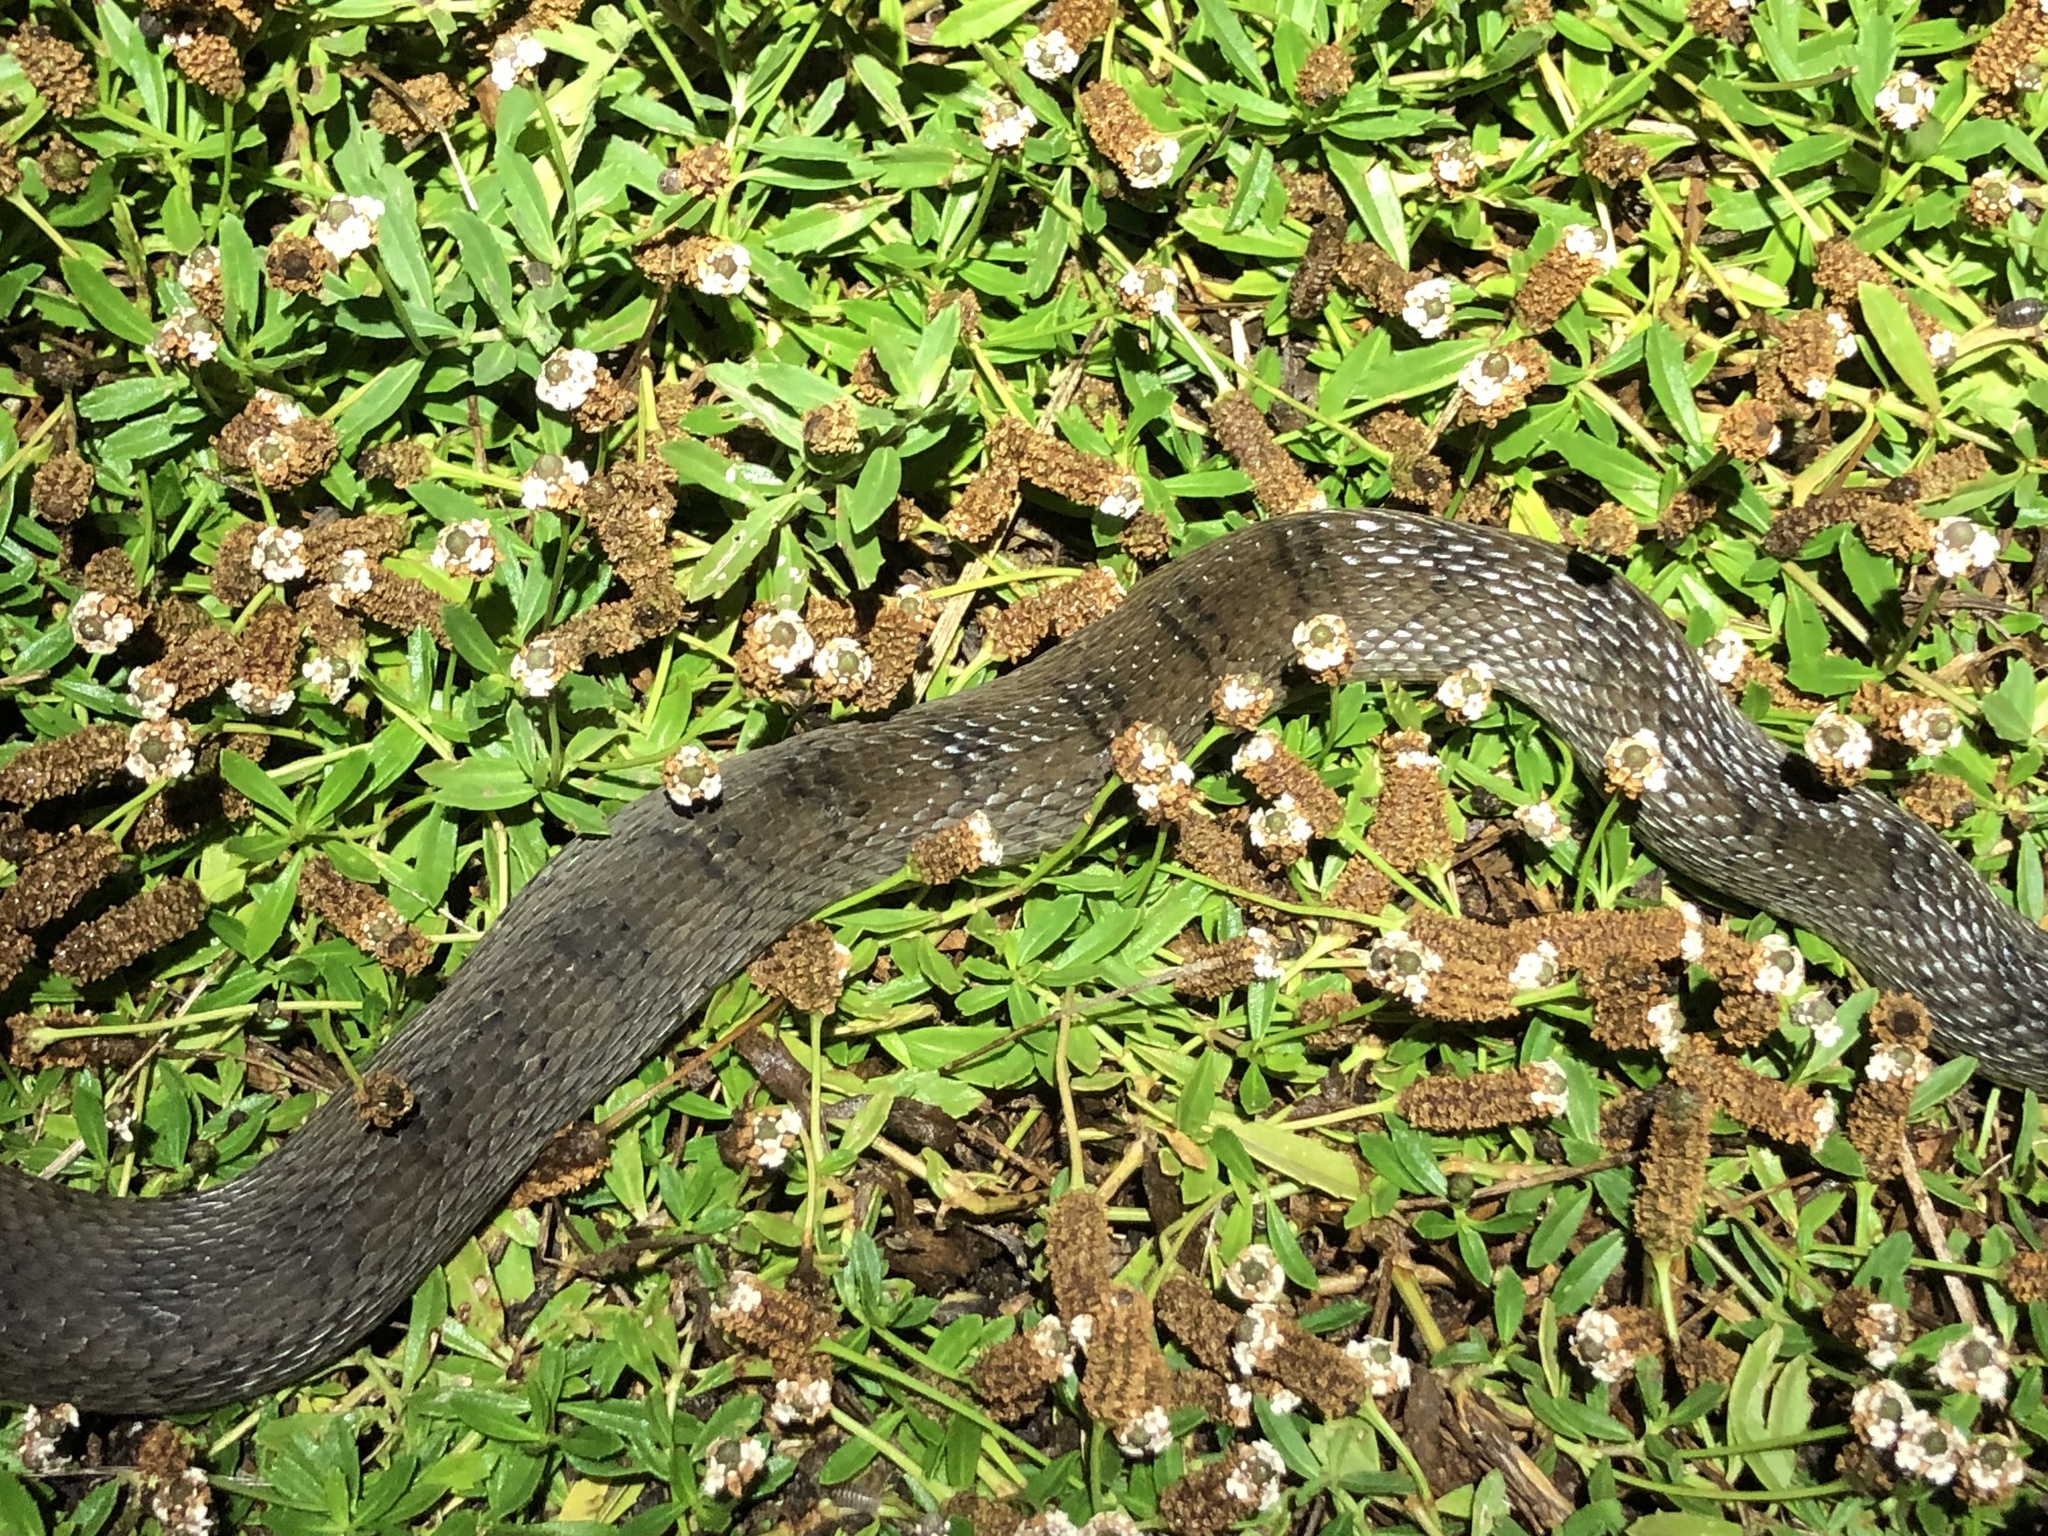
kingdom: Animalia
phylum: Chordata
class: Squamata
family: Colubridae
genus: Nerodia
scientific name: Nerodia erythrogaster
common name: Plainbelly water snake
